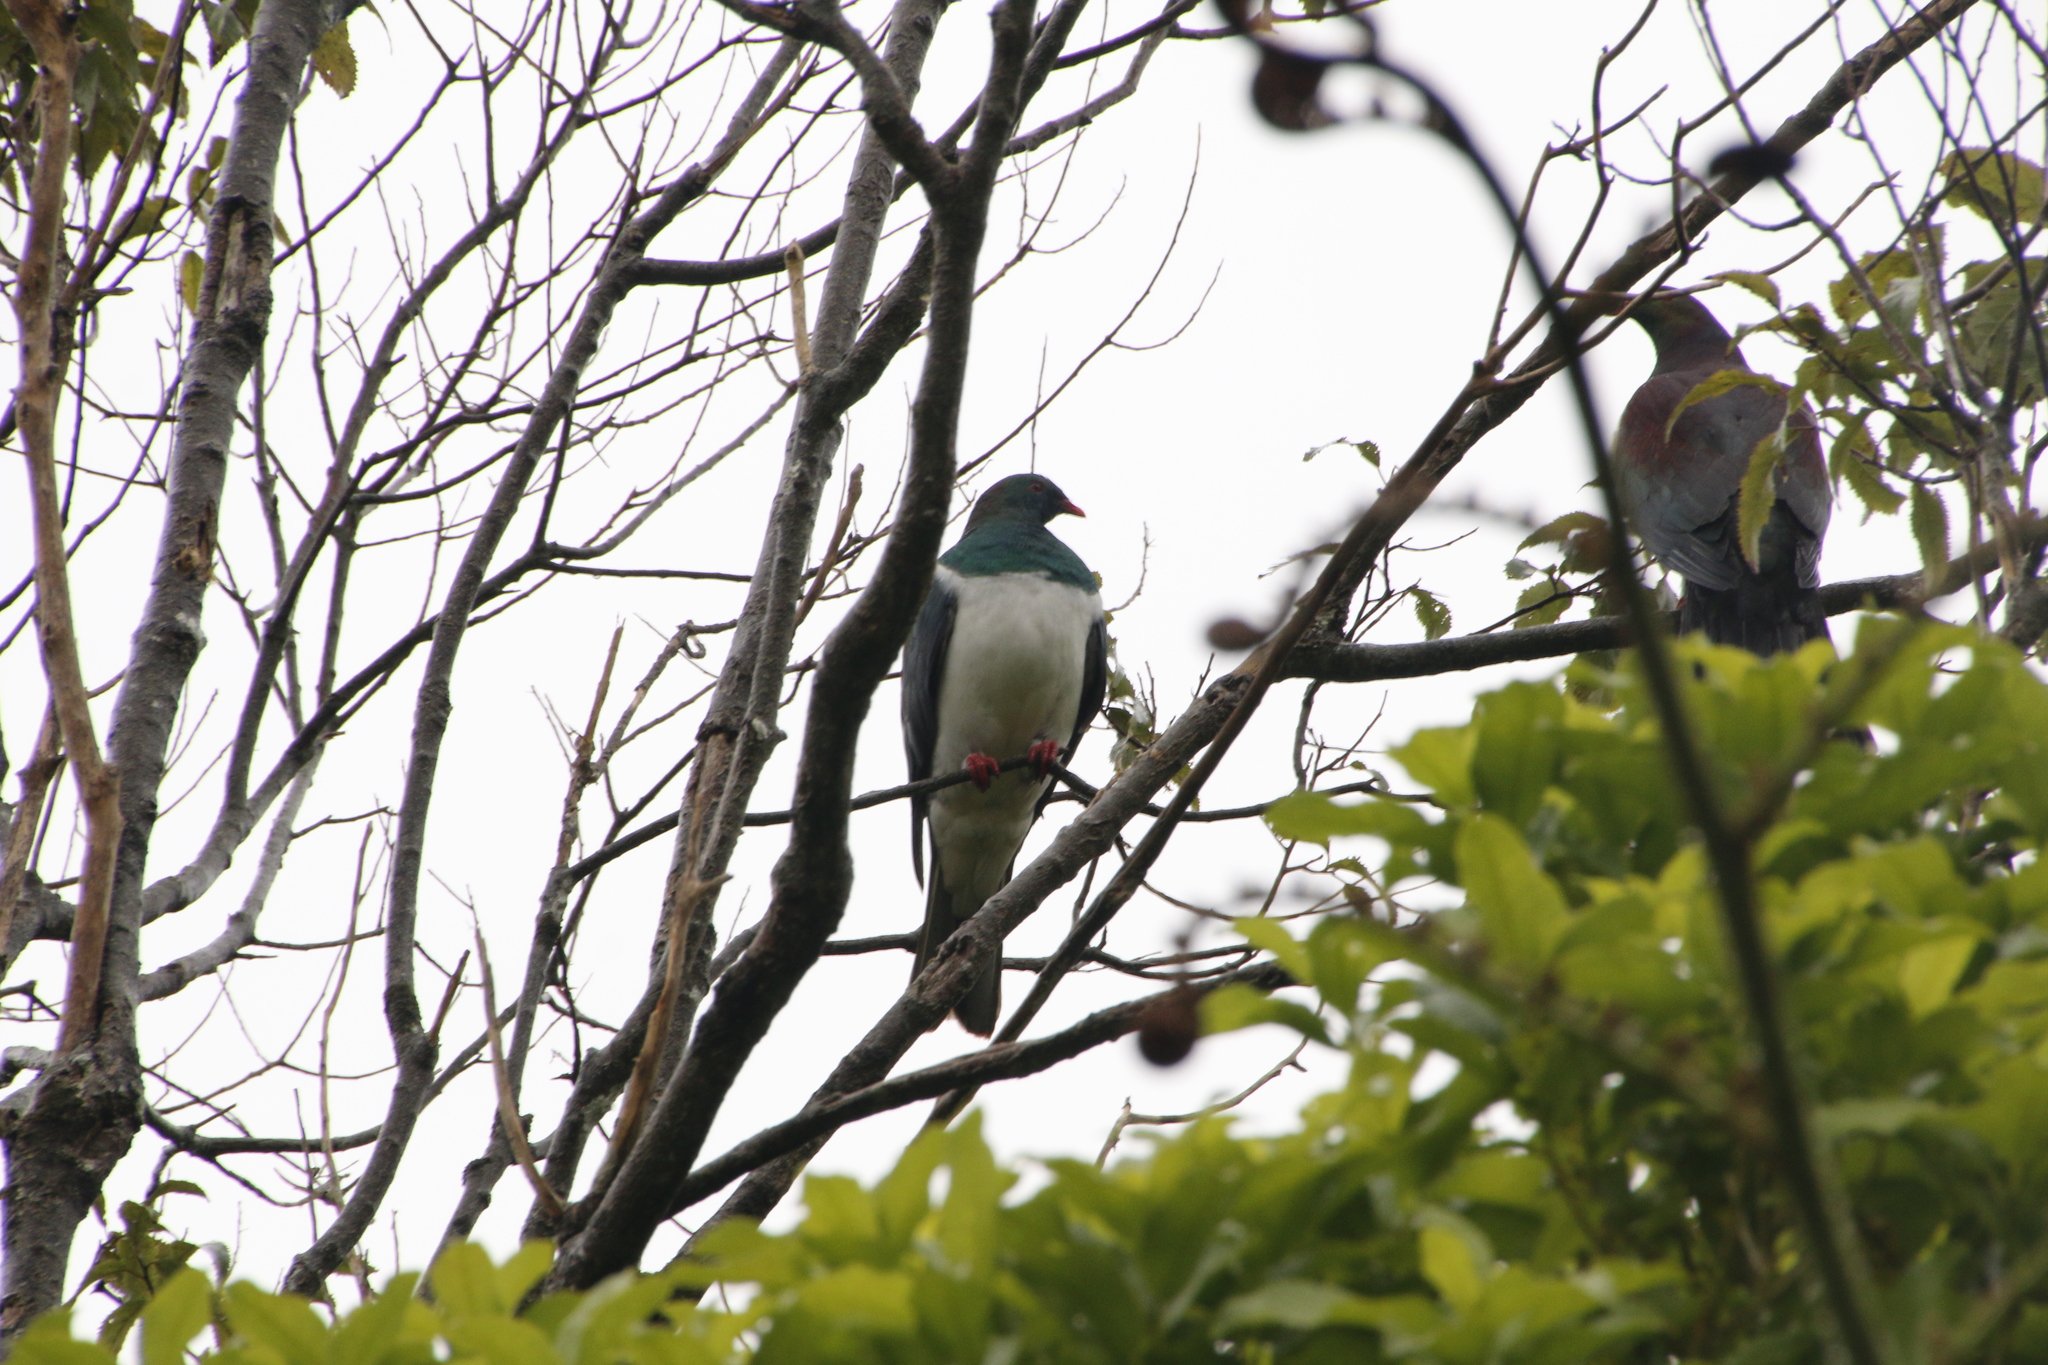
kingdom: Animalia
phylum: Chordata
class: Aves
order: Columbiformes
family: Columbidae
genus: Hemiphaga
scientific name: Hemiphaga novaeseelandiae
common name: New zealand pigeon
